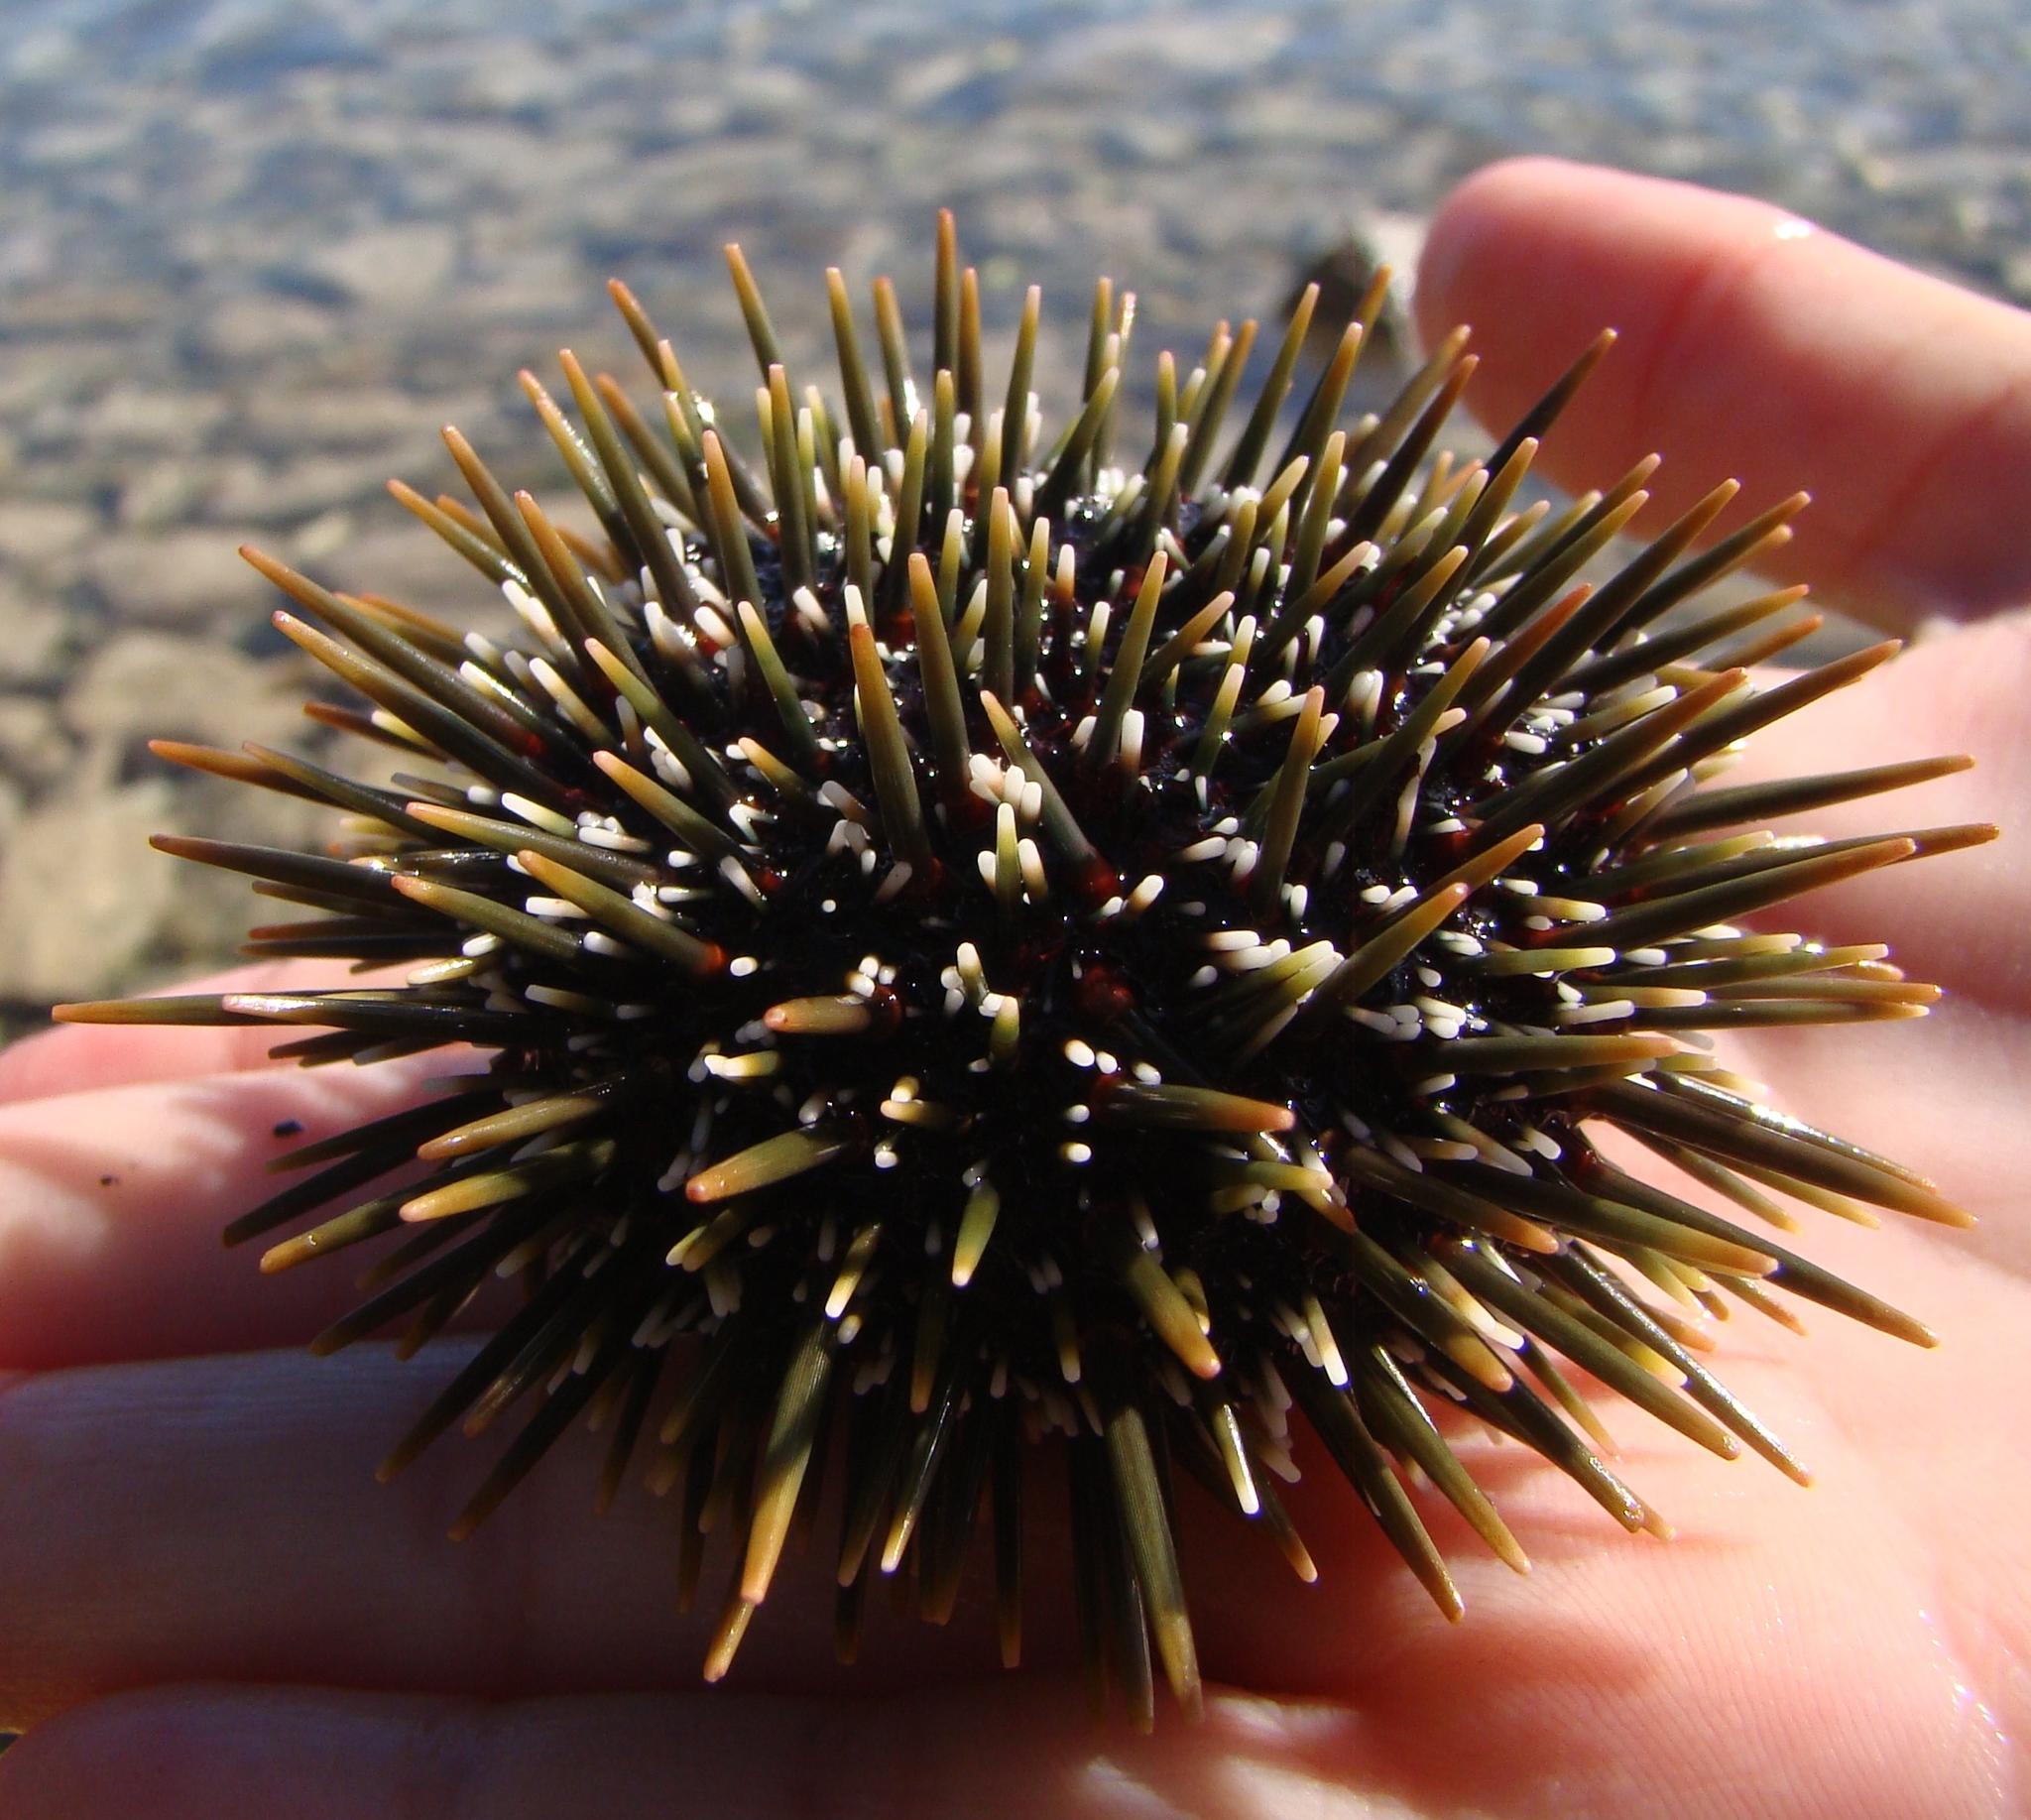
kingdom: Animalia
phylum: Echinodermata
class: Echinoidea
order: Camarodonta
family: Echinometridae
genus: Evechinus
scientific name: Evechinus chloroticus
